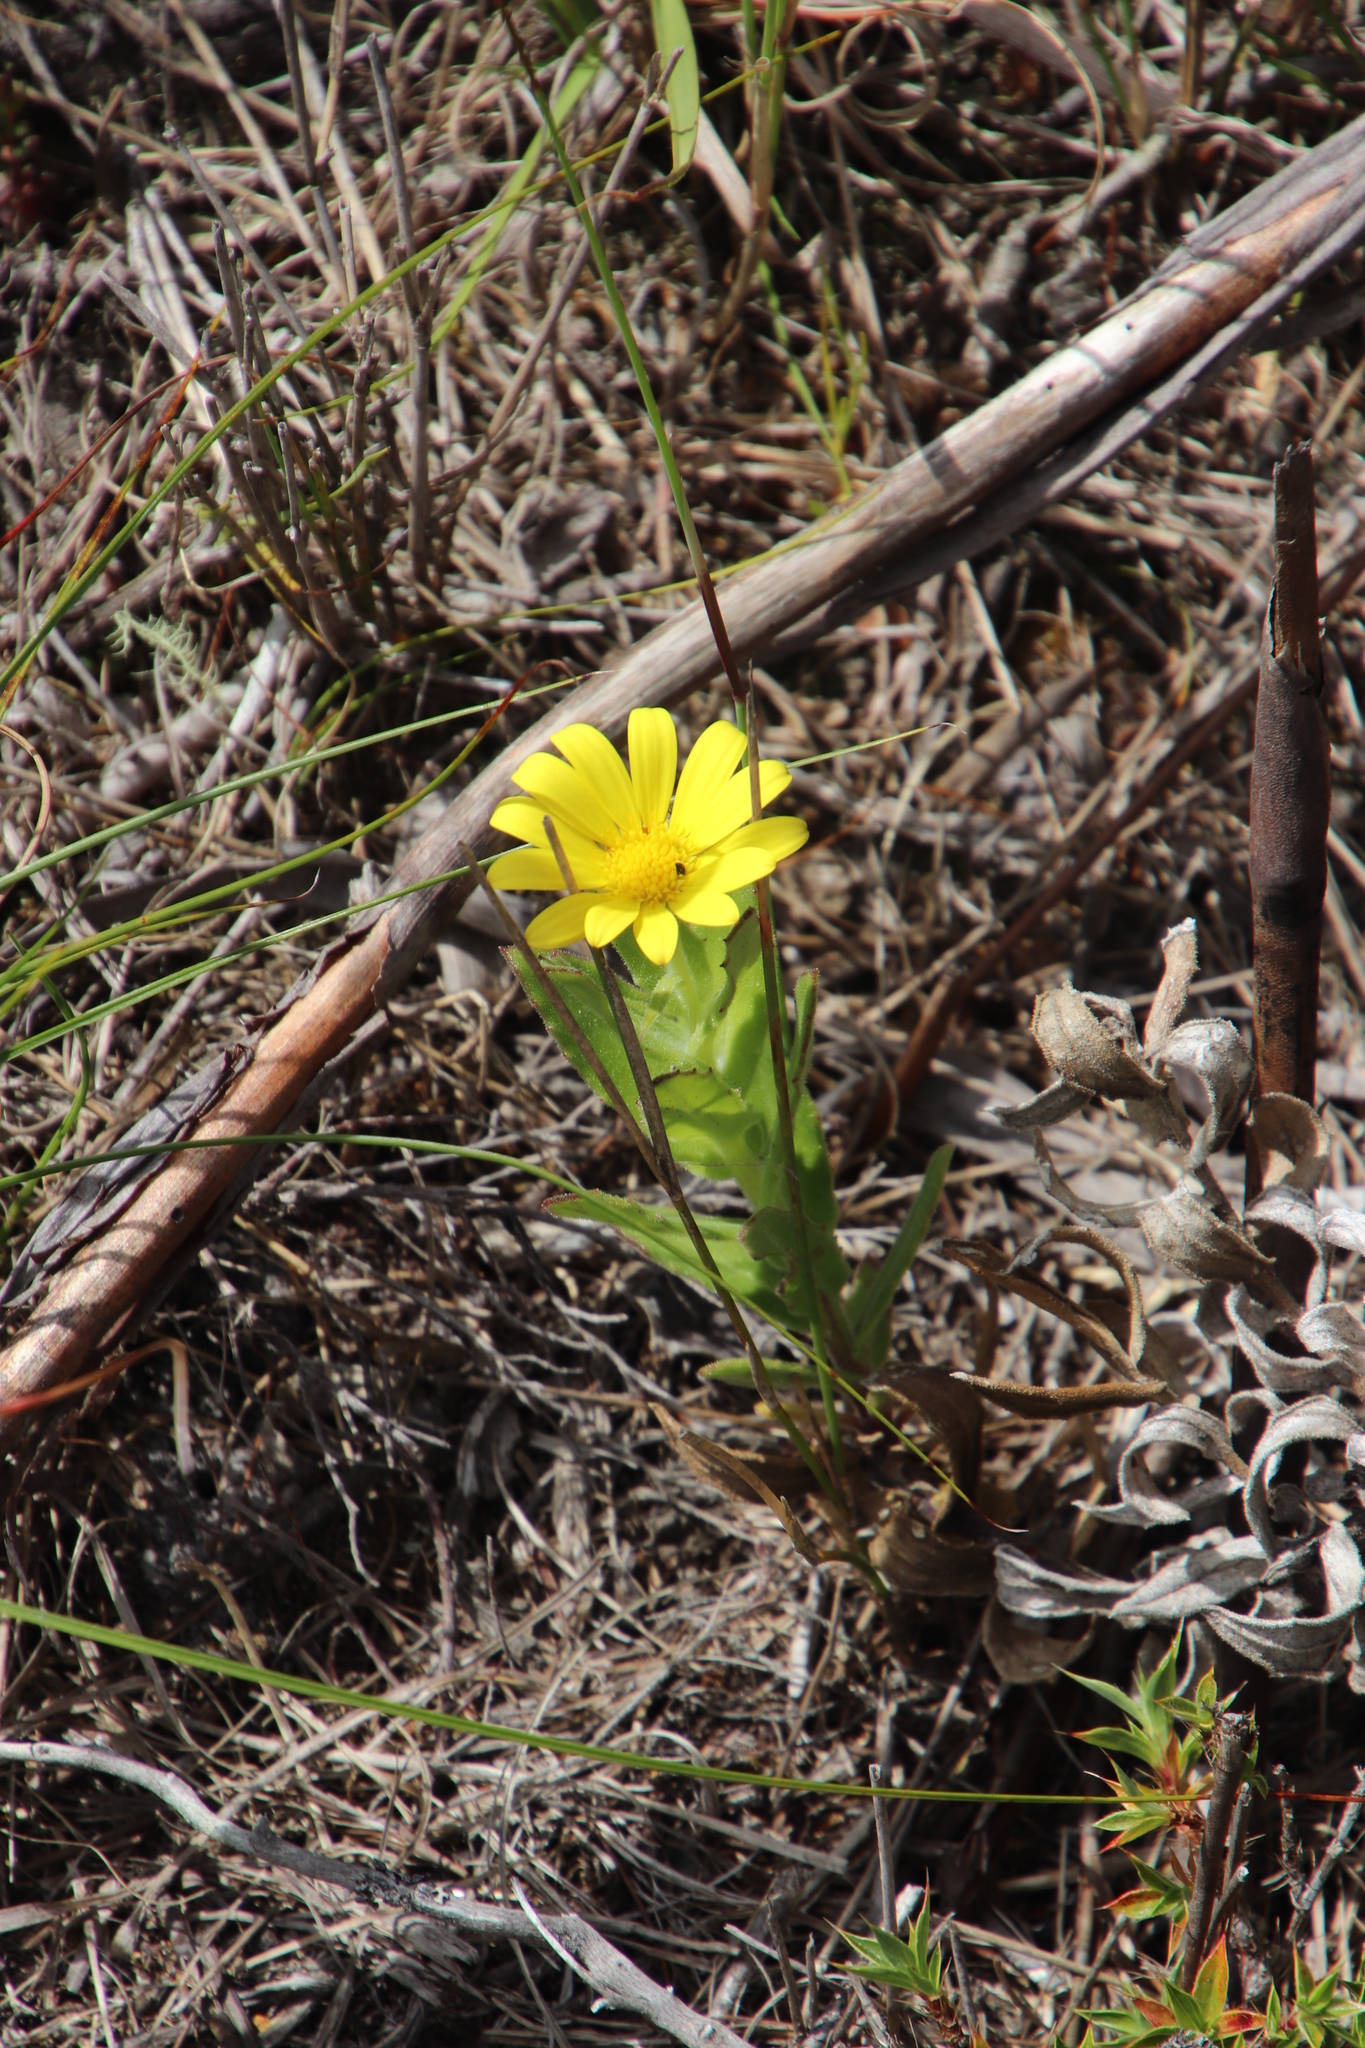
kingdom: Plantae
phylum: Tracheophyta
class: Magnoliopsida
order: Asterales
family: Asteraceae
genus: Osteospermum
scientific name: Osteospermum ilicifolium
